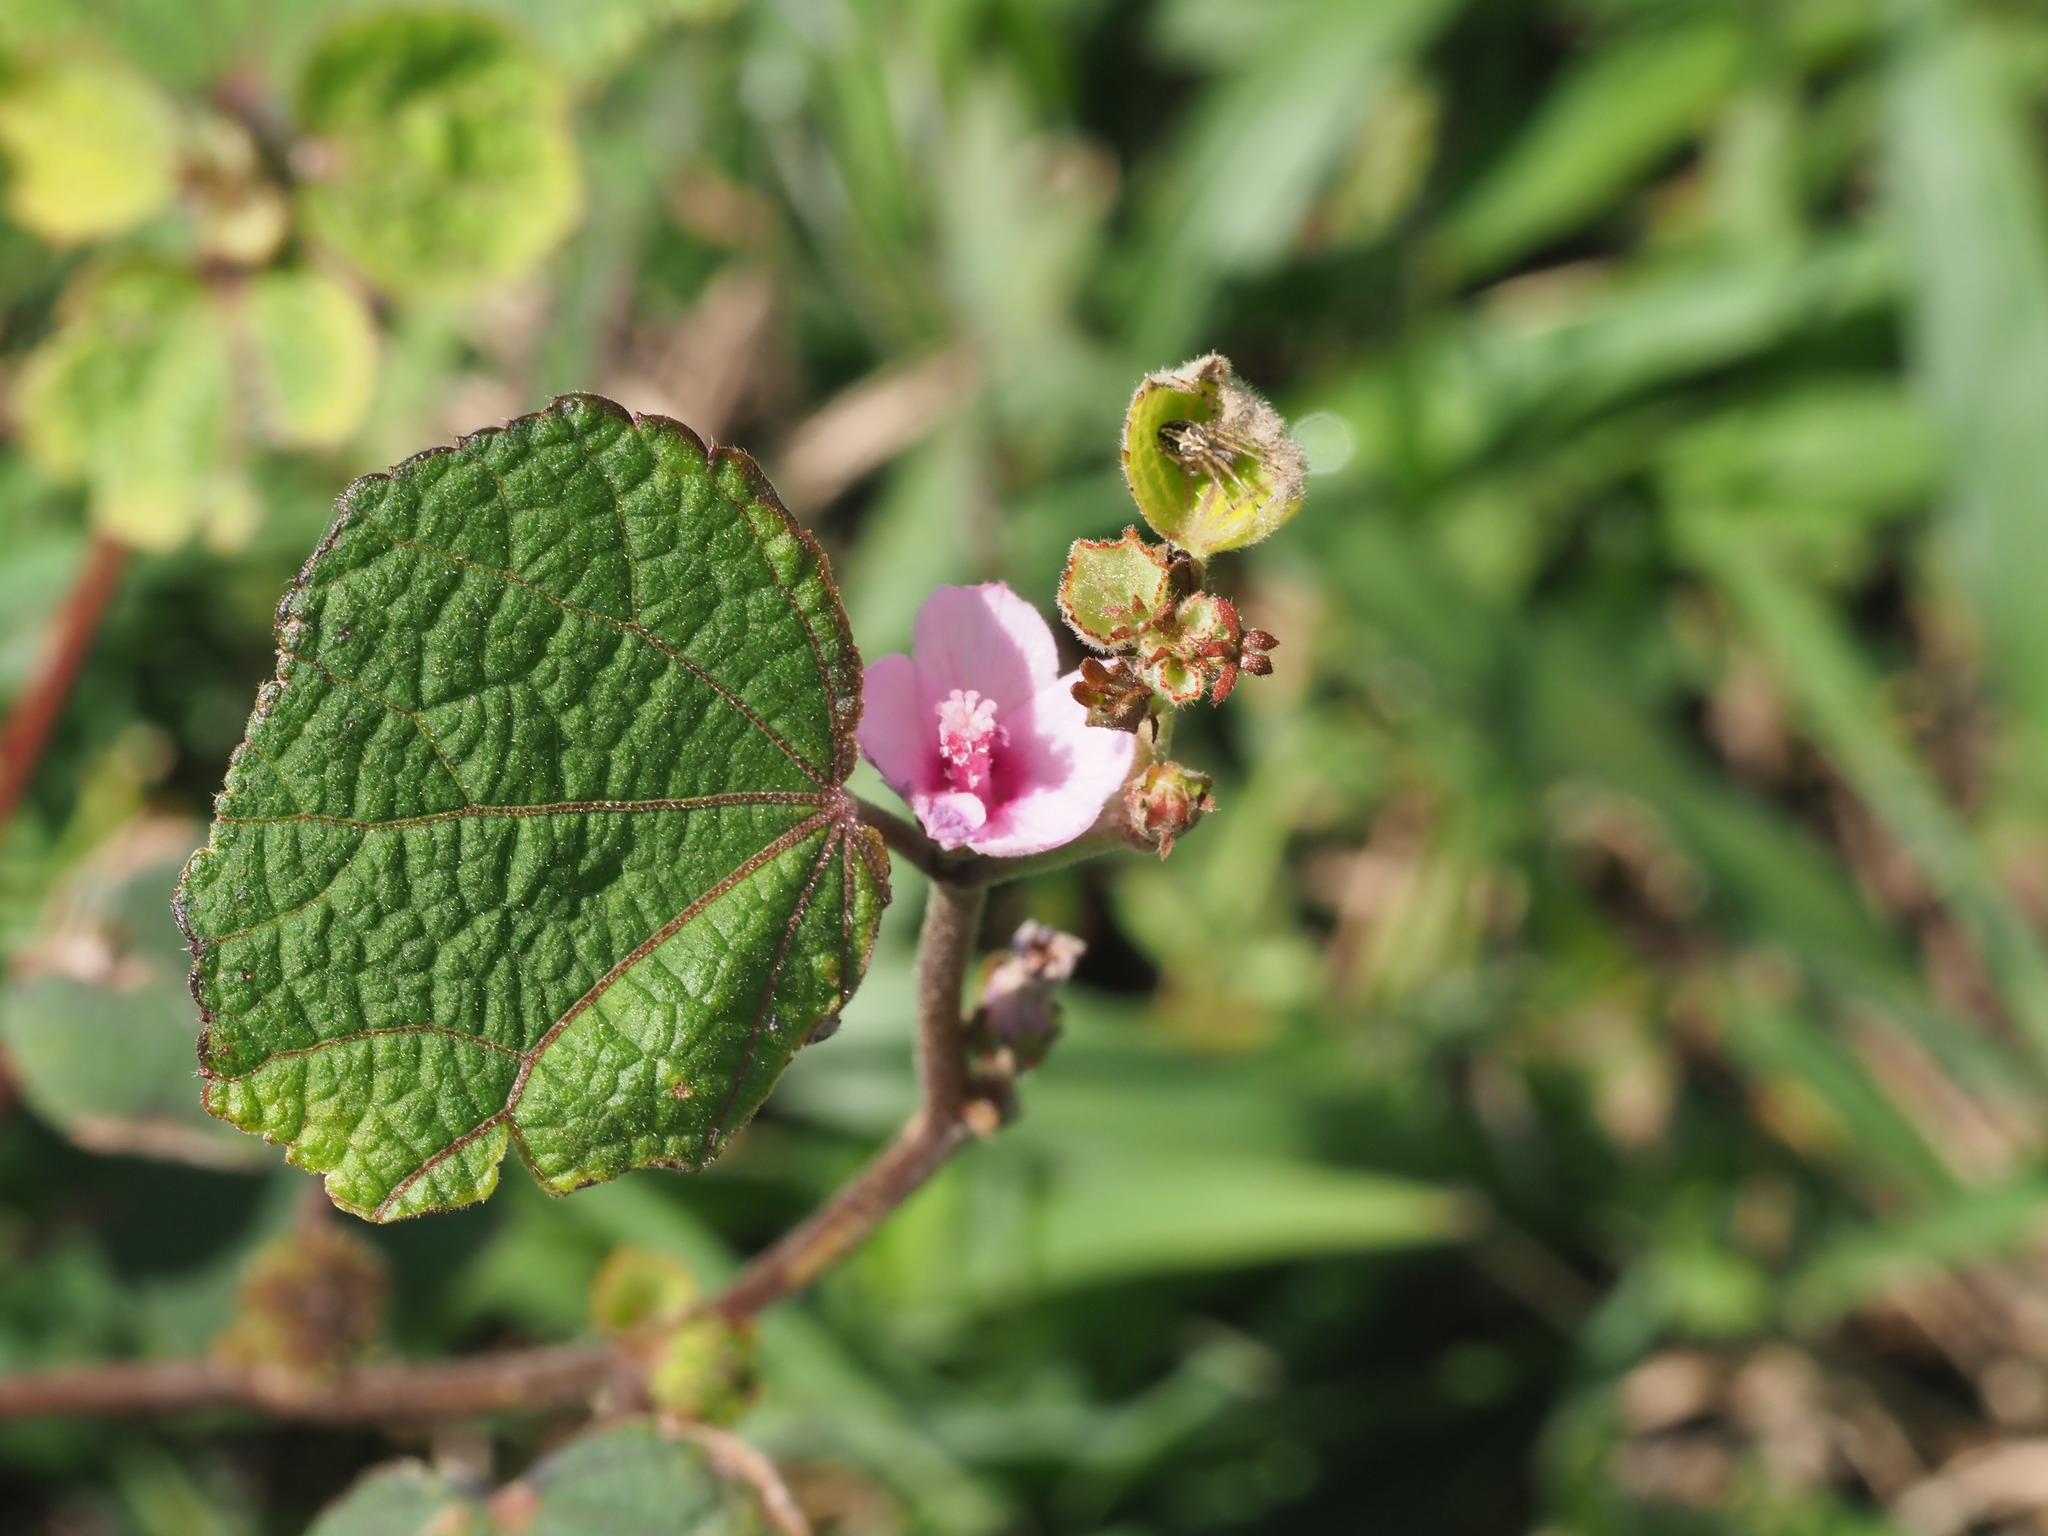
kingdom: Plantae
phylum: Tracheophyta
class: Magnoliopsida
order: Malvales
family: Malvaceae
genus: Urena
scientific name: Urena lobata
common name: Caesarweed
